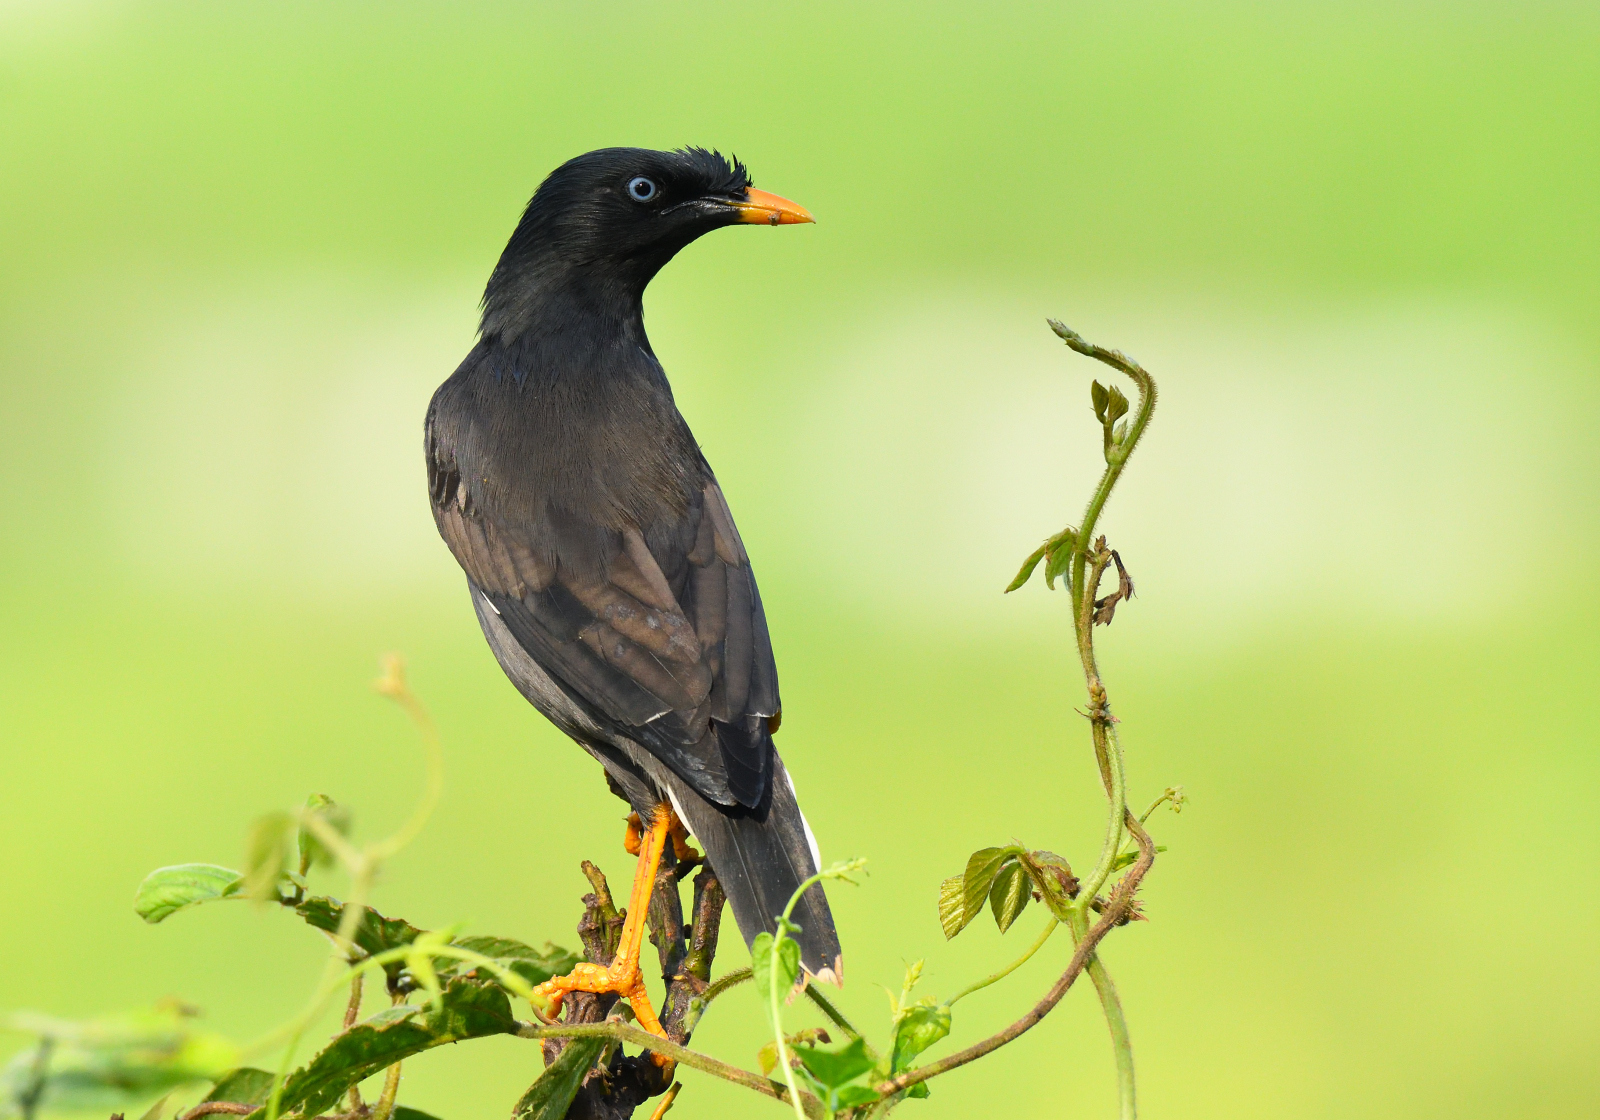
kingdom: Animalia
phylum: Chordata
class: Aves
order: Passeriformes
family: Sturnidae
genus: Acridotheres
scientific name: Acridotheres fuscus
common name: Jungle myna
